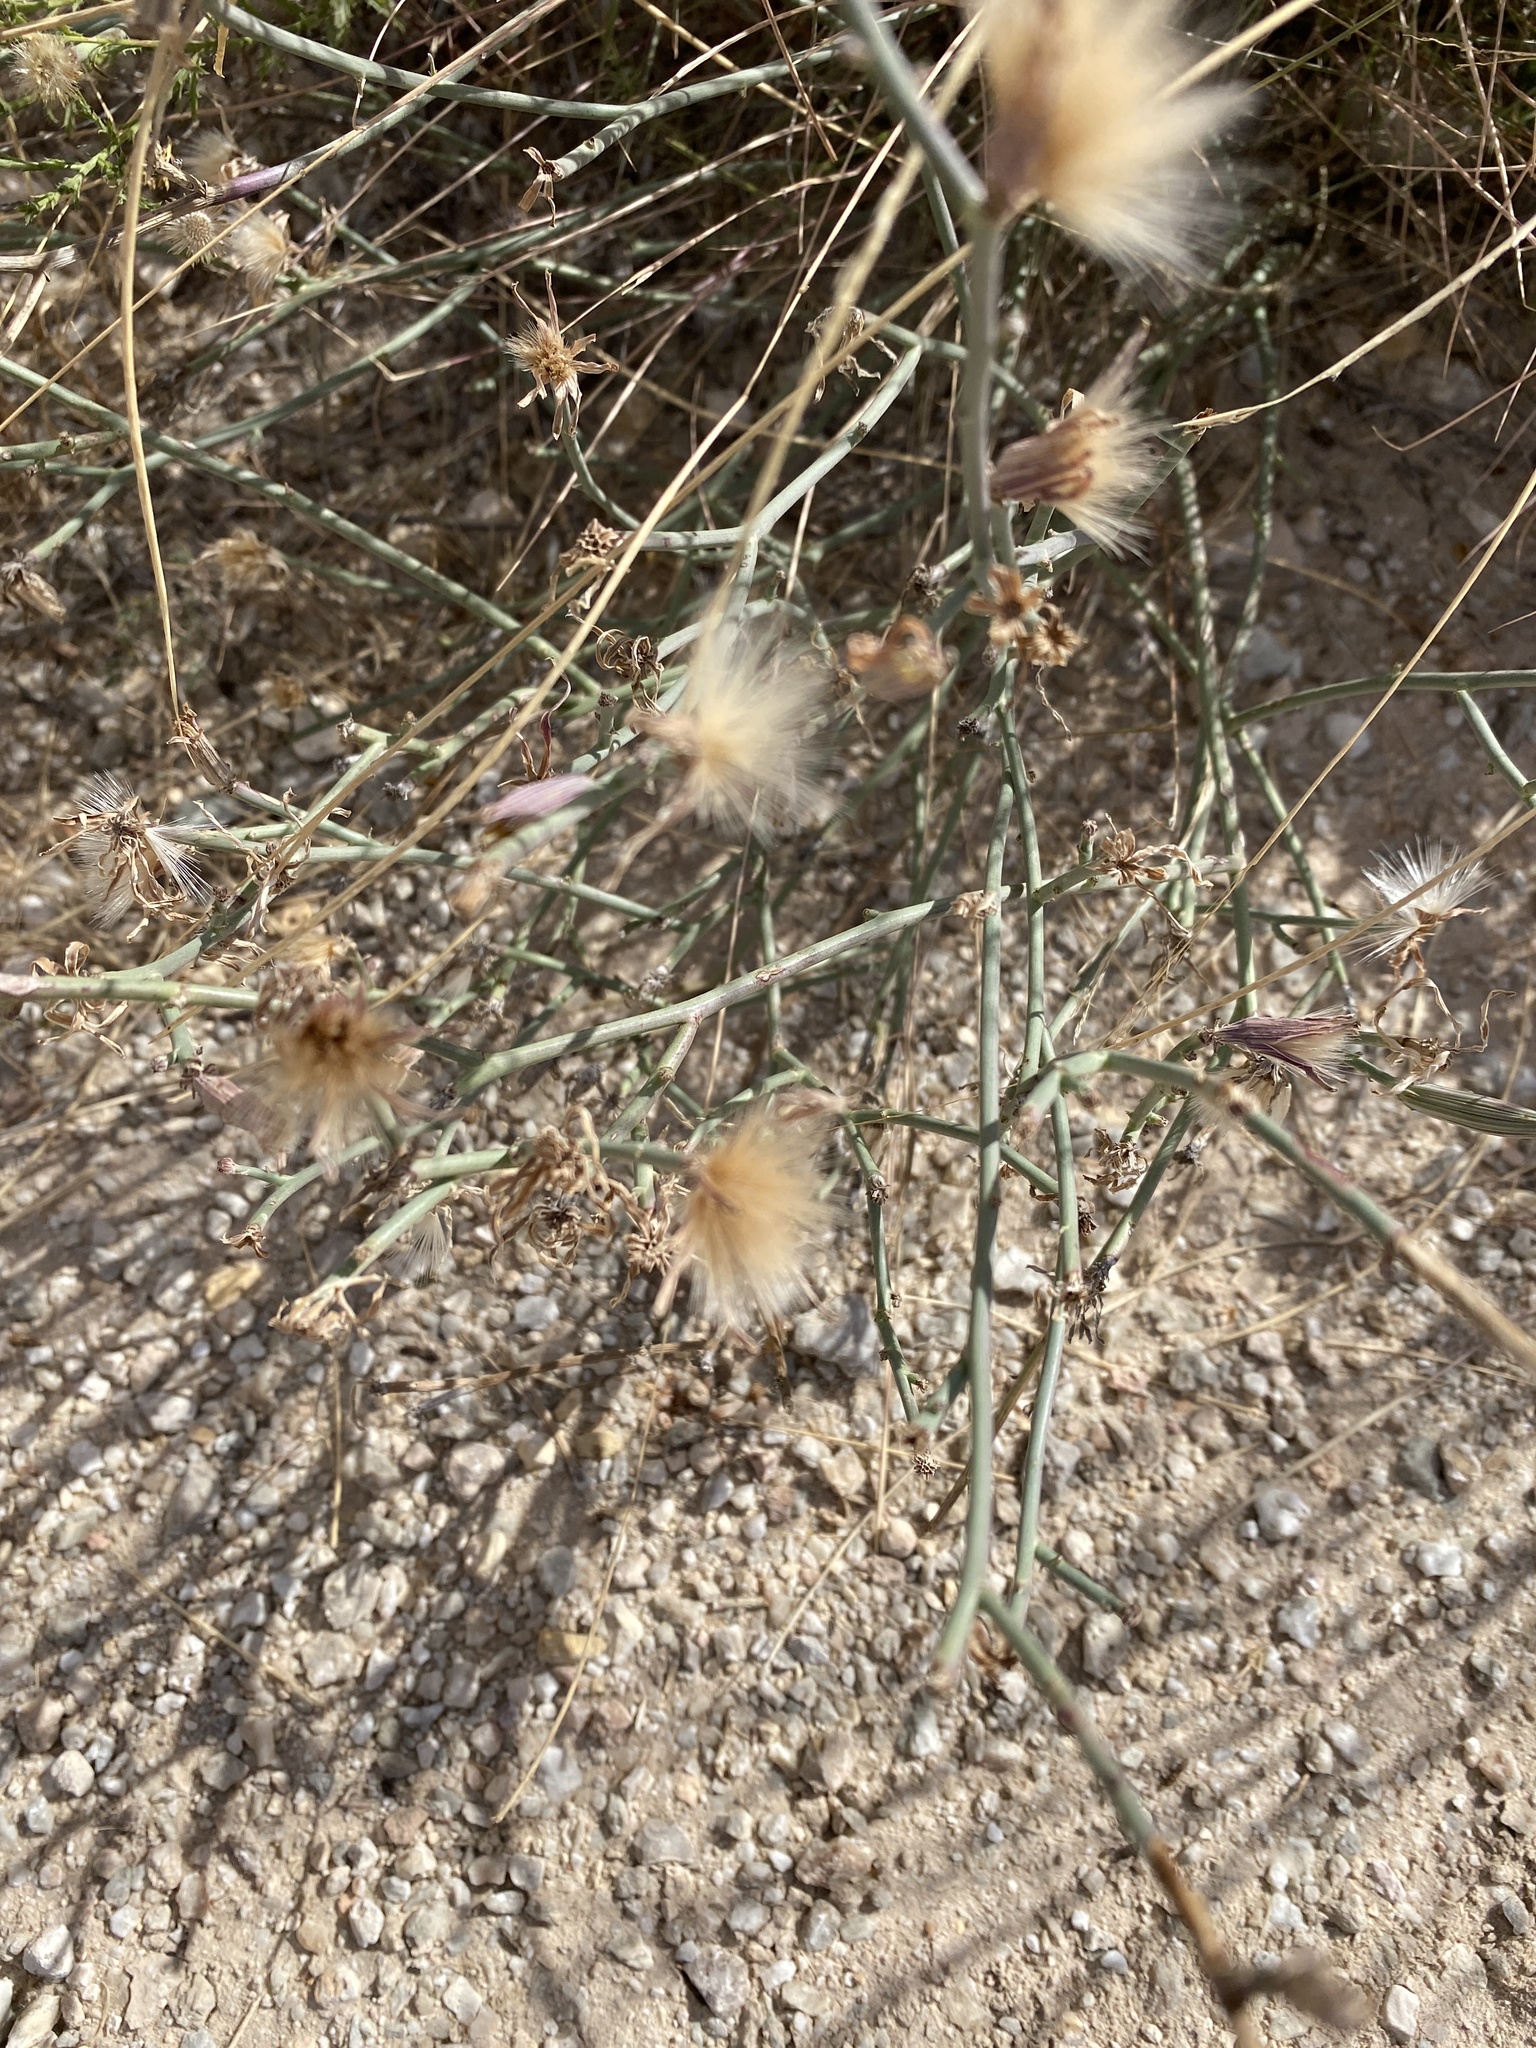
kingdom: Plantae
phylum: Tracheophyta
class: Magnoliopsida
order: Asterales
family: Asteraceae
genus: Lygodesmia
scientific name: Lygodesmia texana
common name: Texas skeleton-plant
